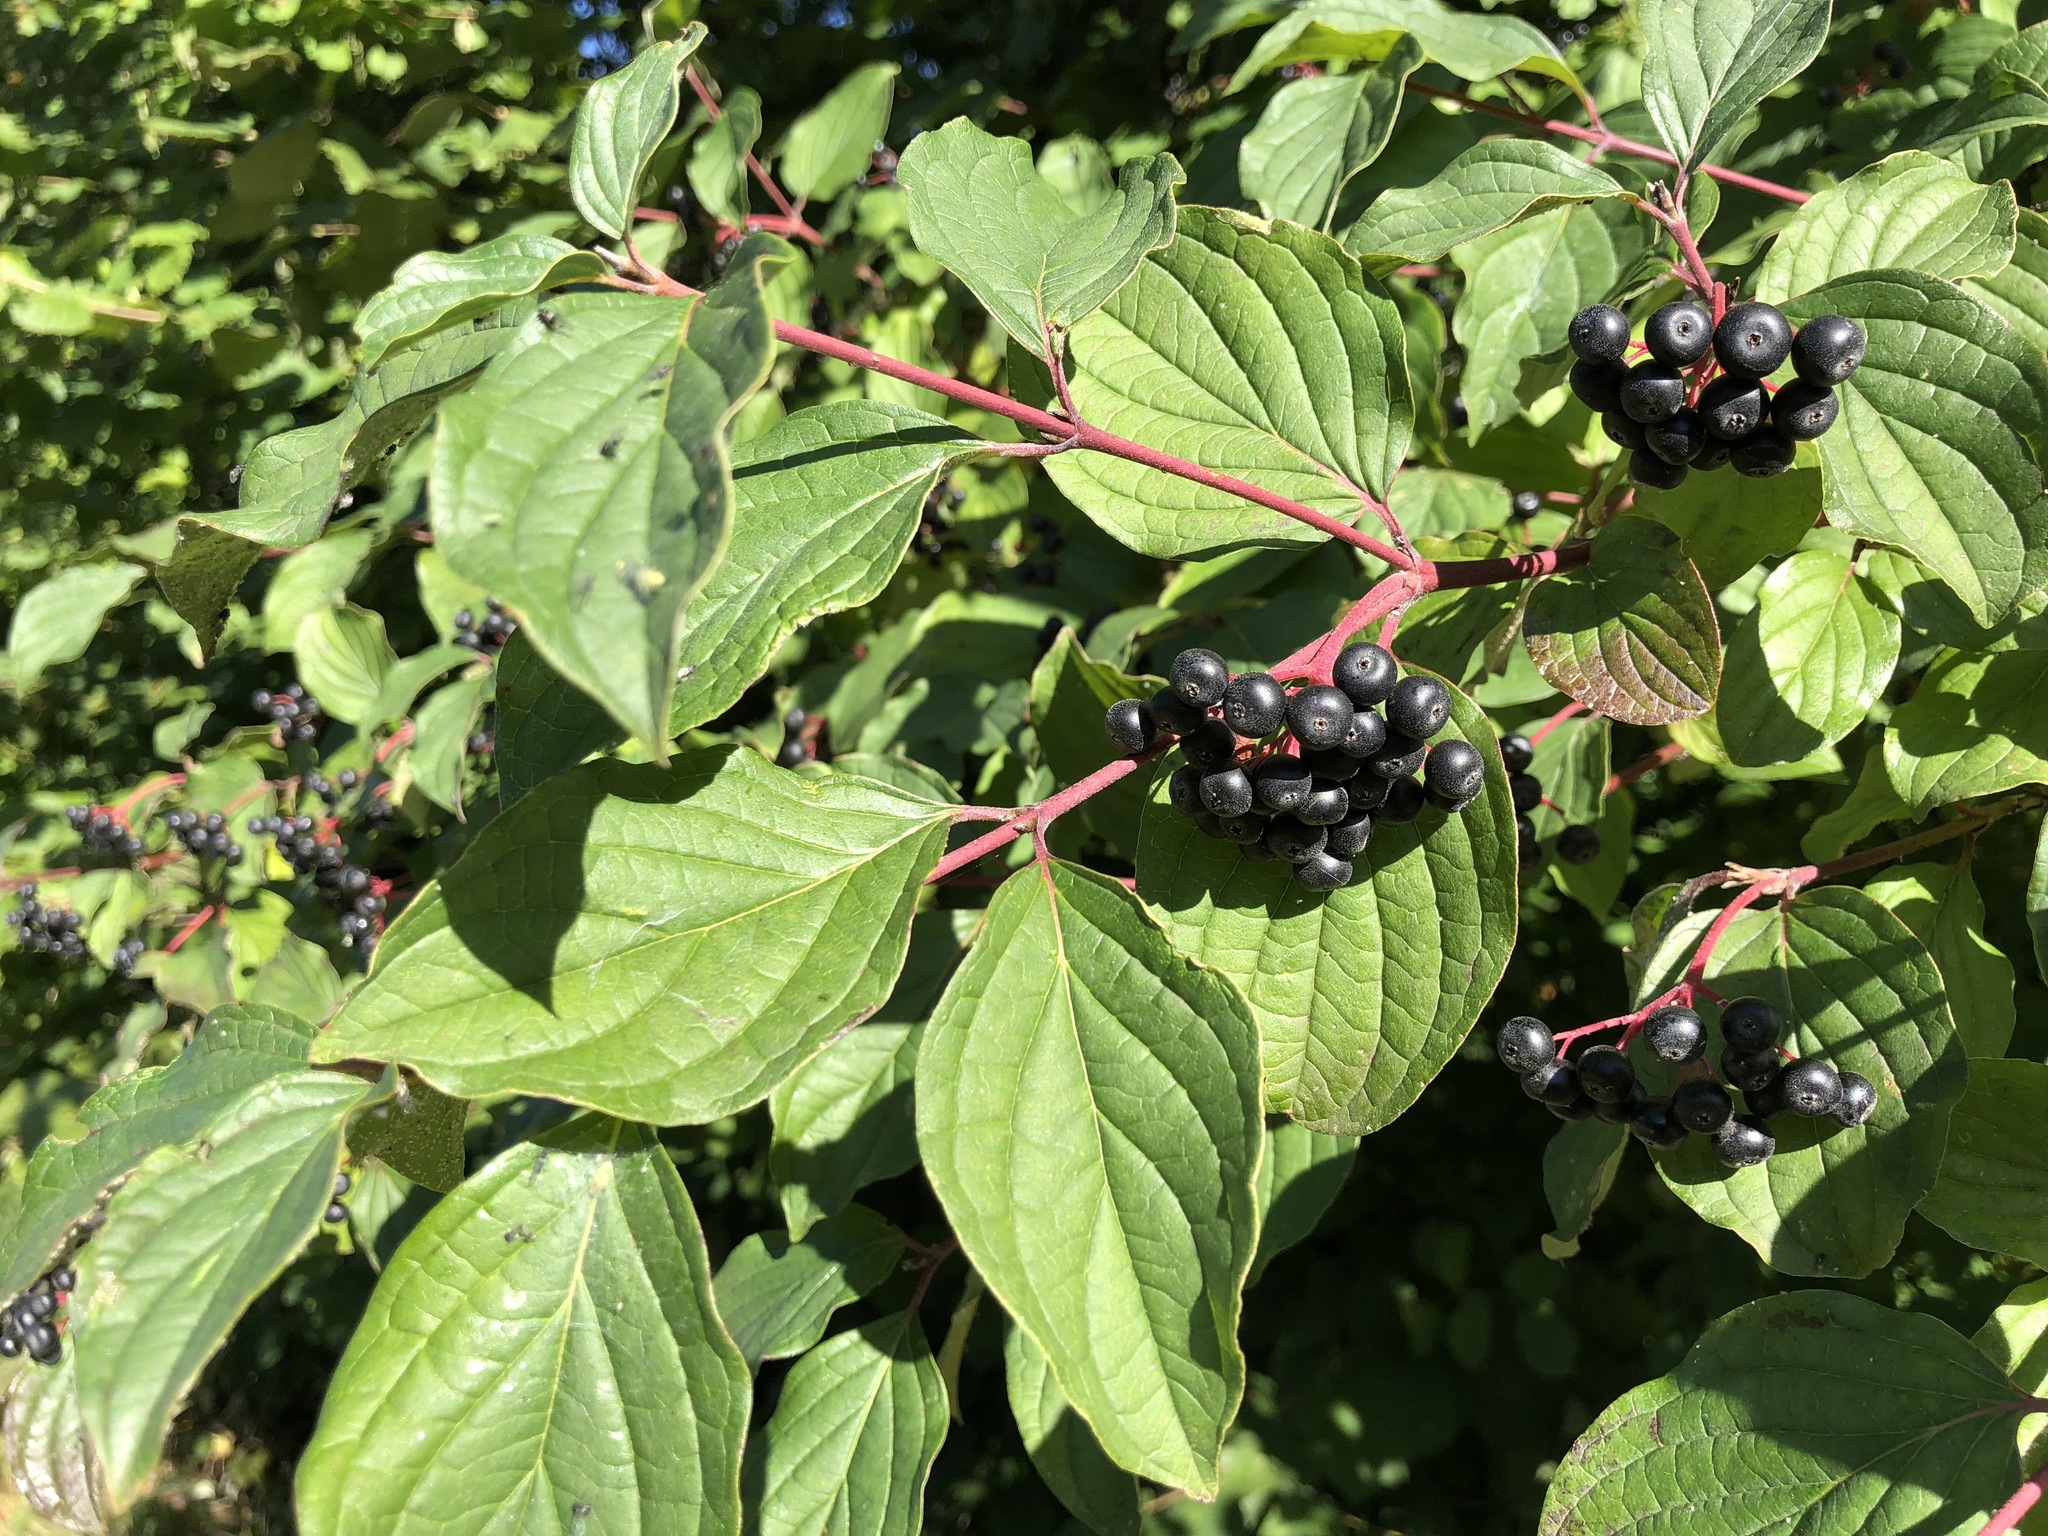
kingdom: Plantae
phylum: Tracheophyta
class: Magnoliopsida
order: Cornales
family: Cornaceae
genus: Cornus
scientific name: Cornus sanguinea
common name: Dogwood
